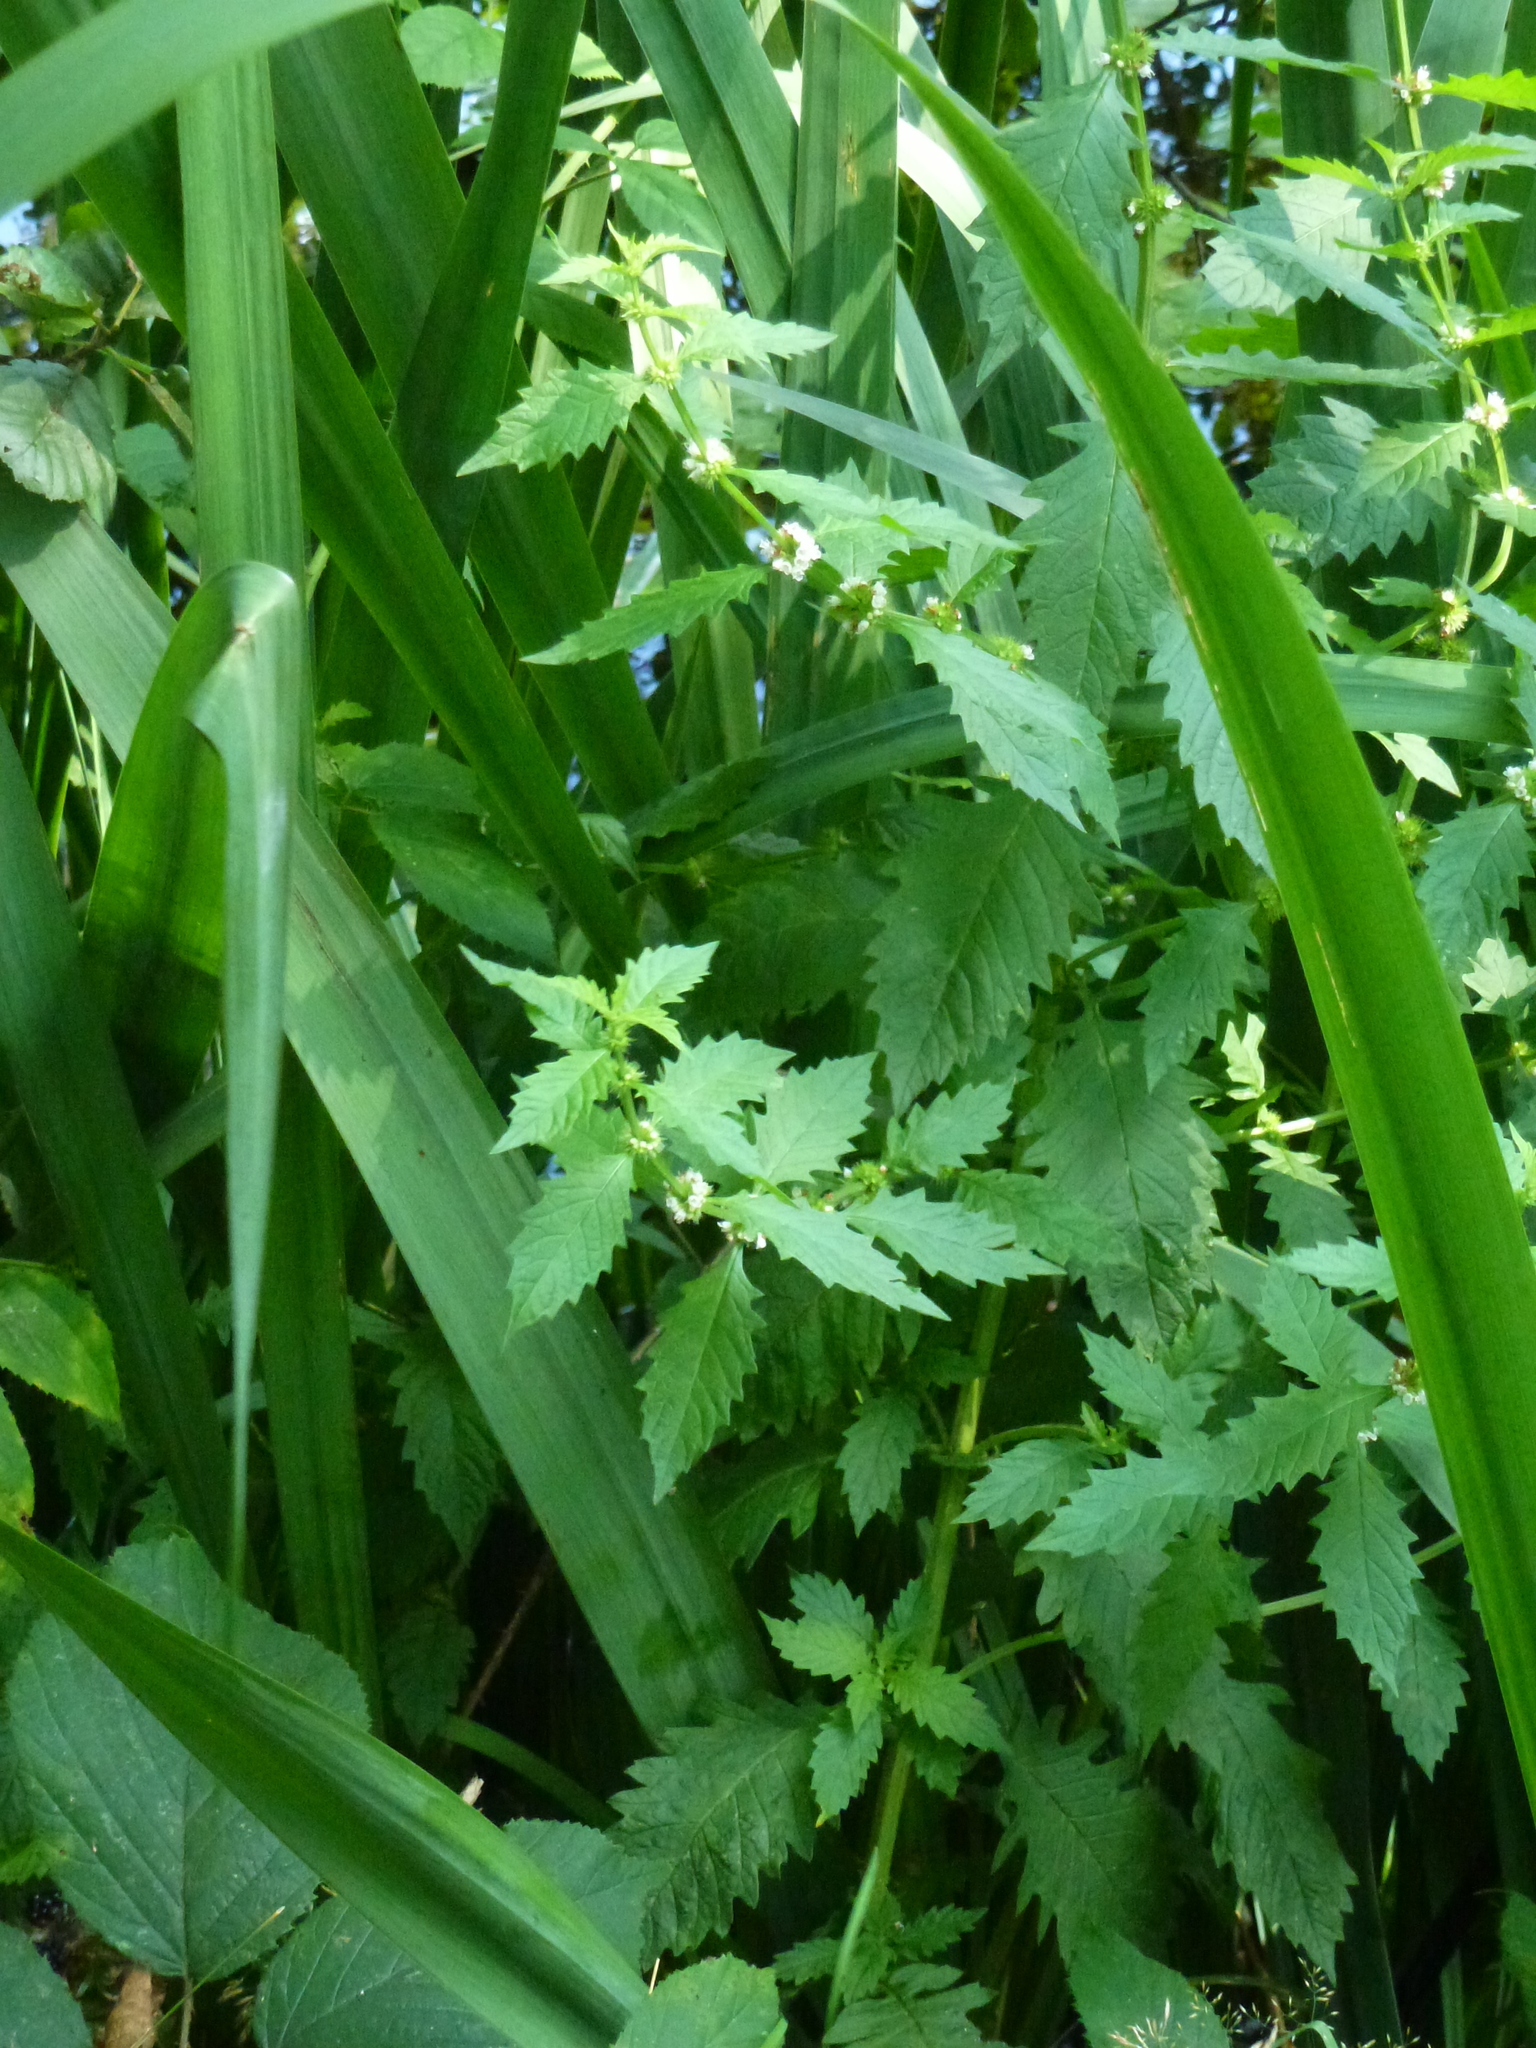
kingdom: Plantae
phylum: Tracheophyta
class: Magnoliopsida
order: Lamiales
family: Lamiaceae
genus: Lycopus
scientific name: Lycopus europaeus
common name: European bugleweed
